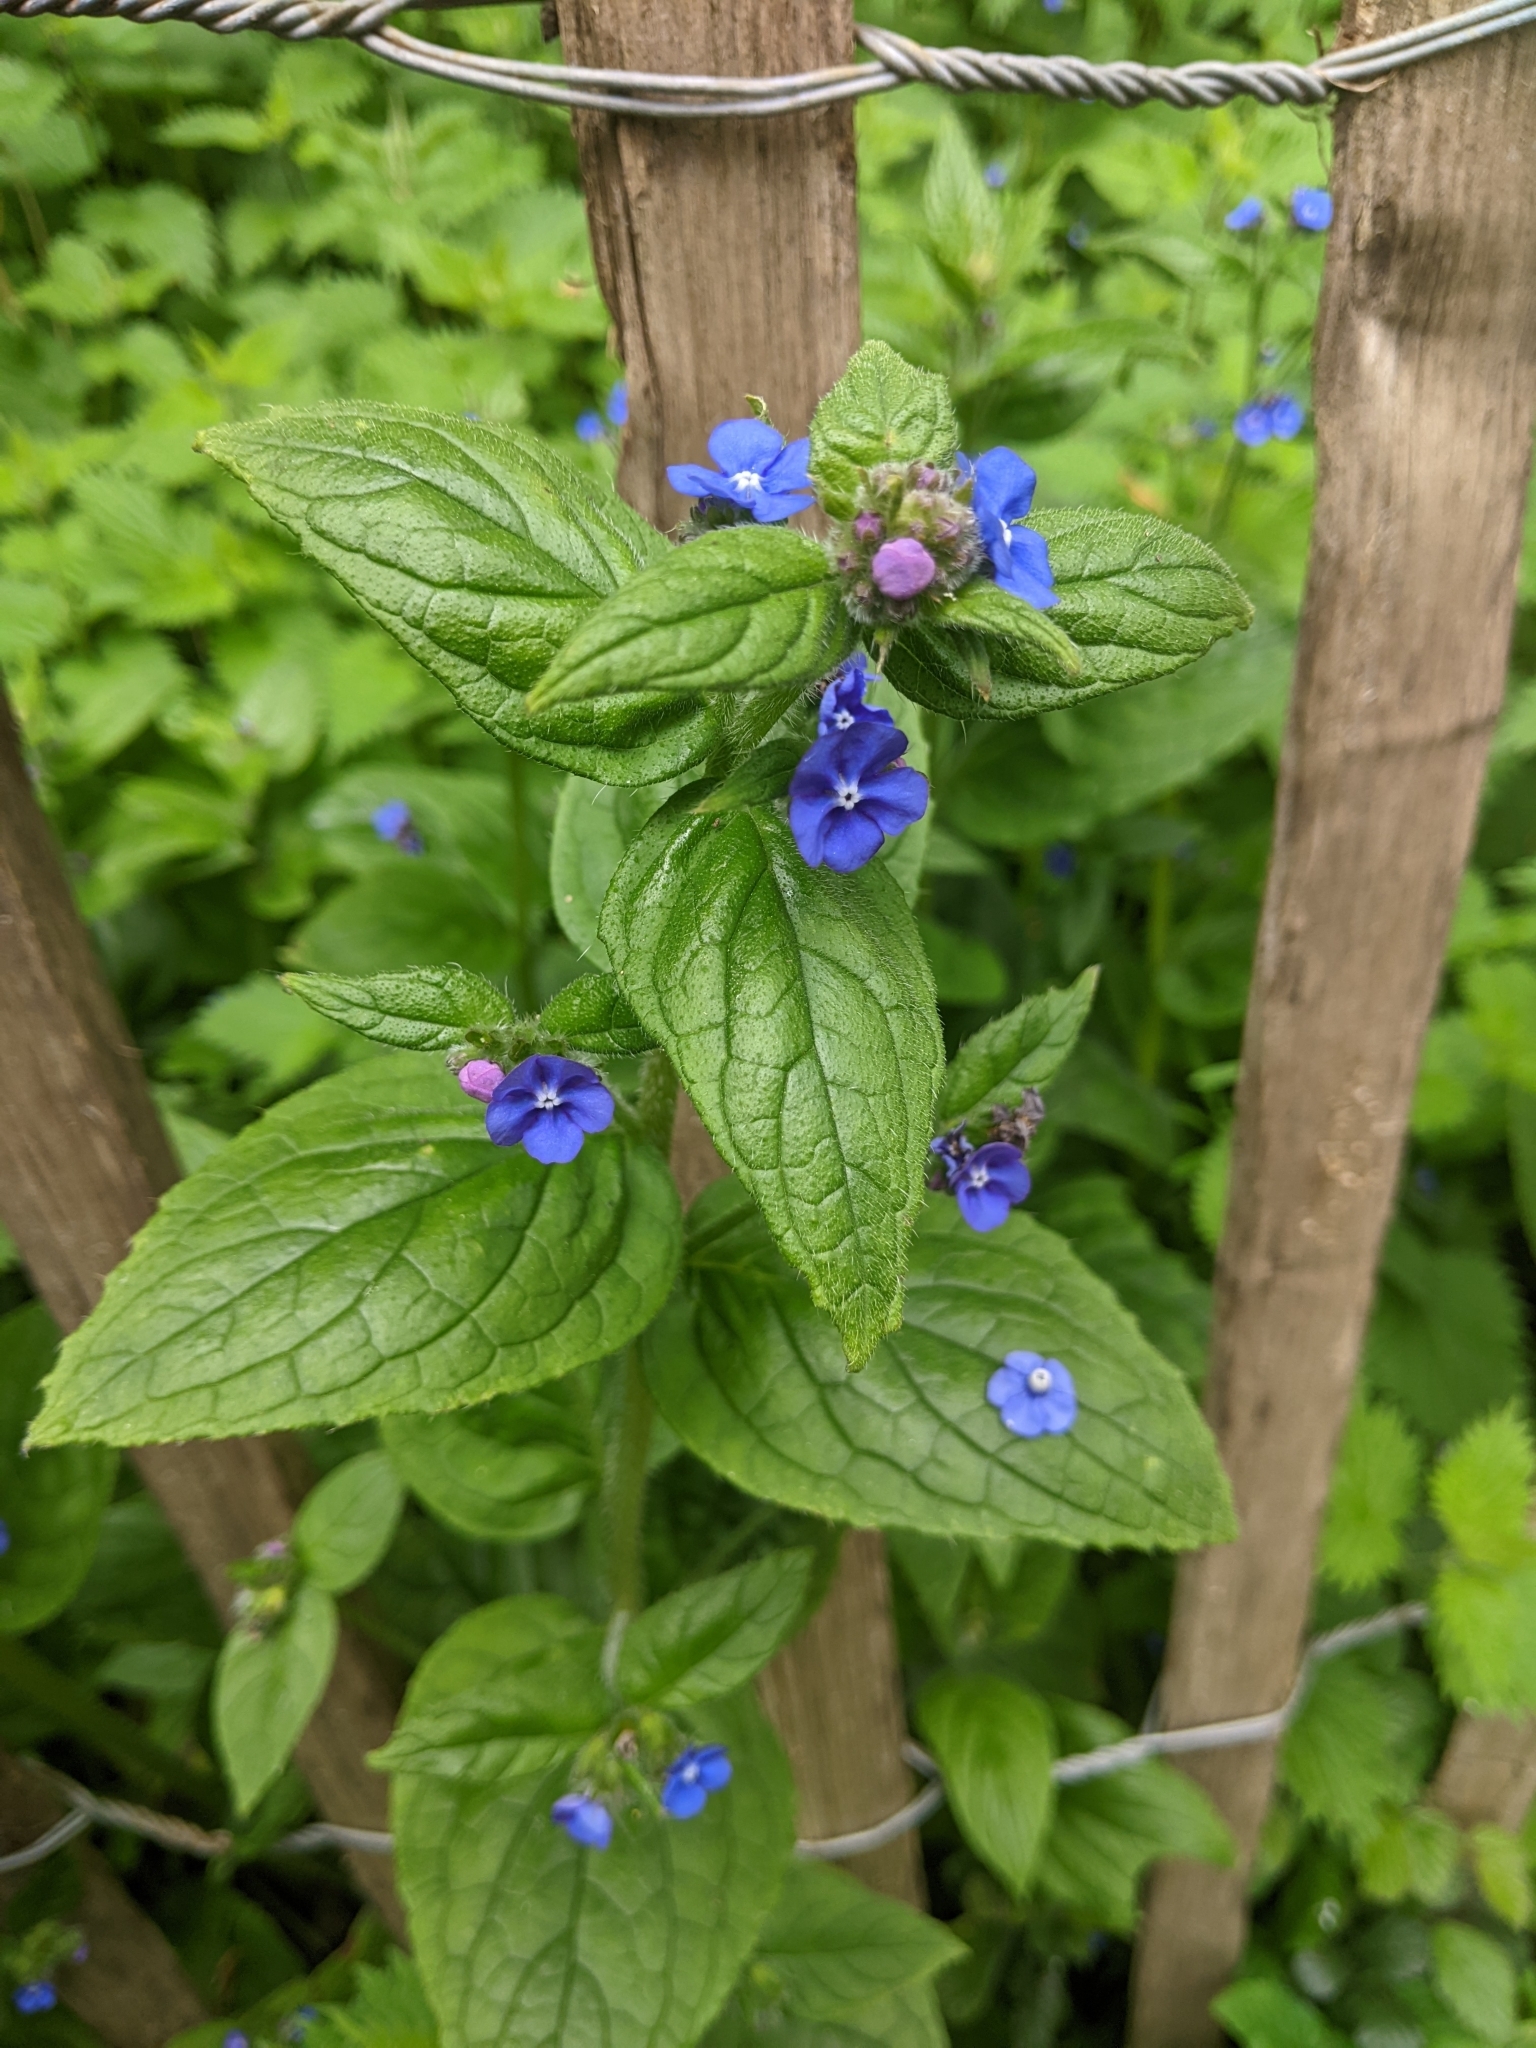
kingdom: Plantae
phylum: Tracheophyta
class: Magnoliopsida
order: Boraginales
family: Boraginaceae
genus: Pentaglottis
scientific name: Pentaglottis sempervirens
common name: Green alkanet
